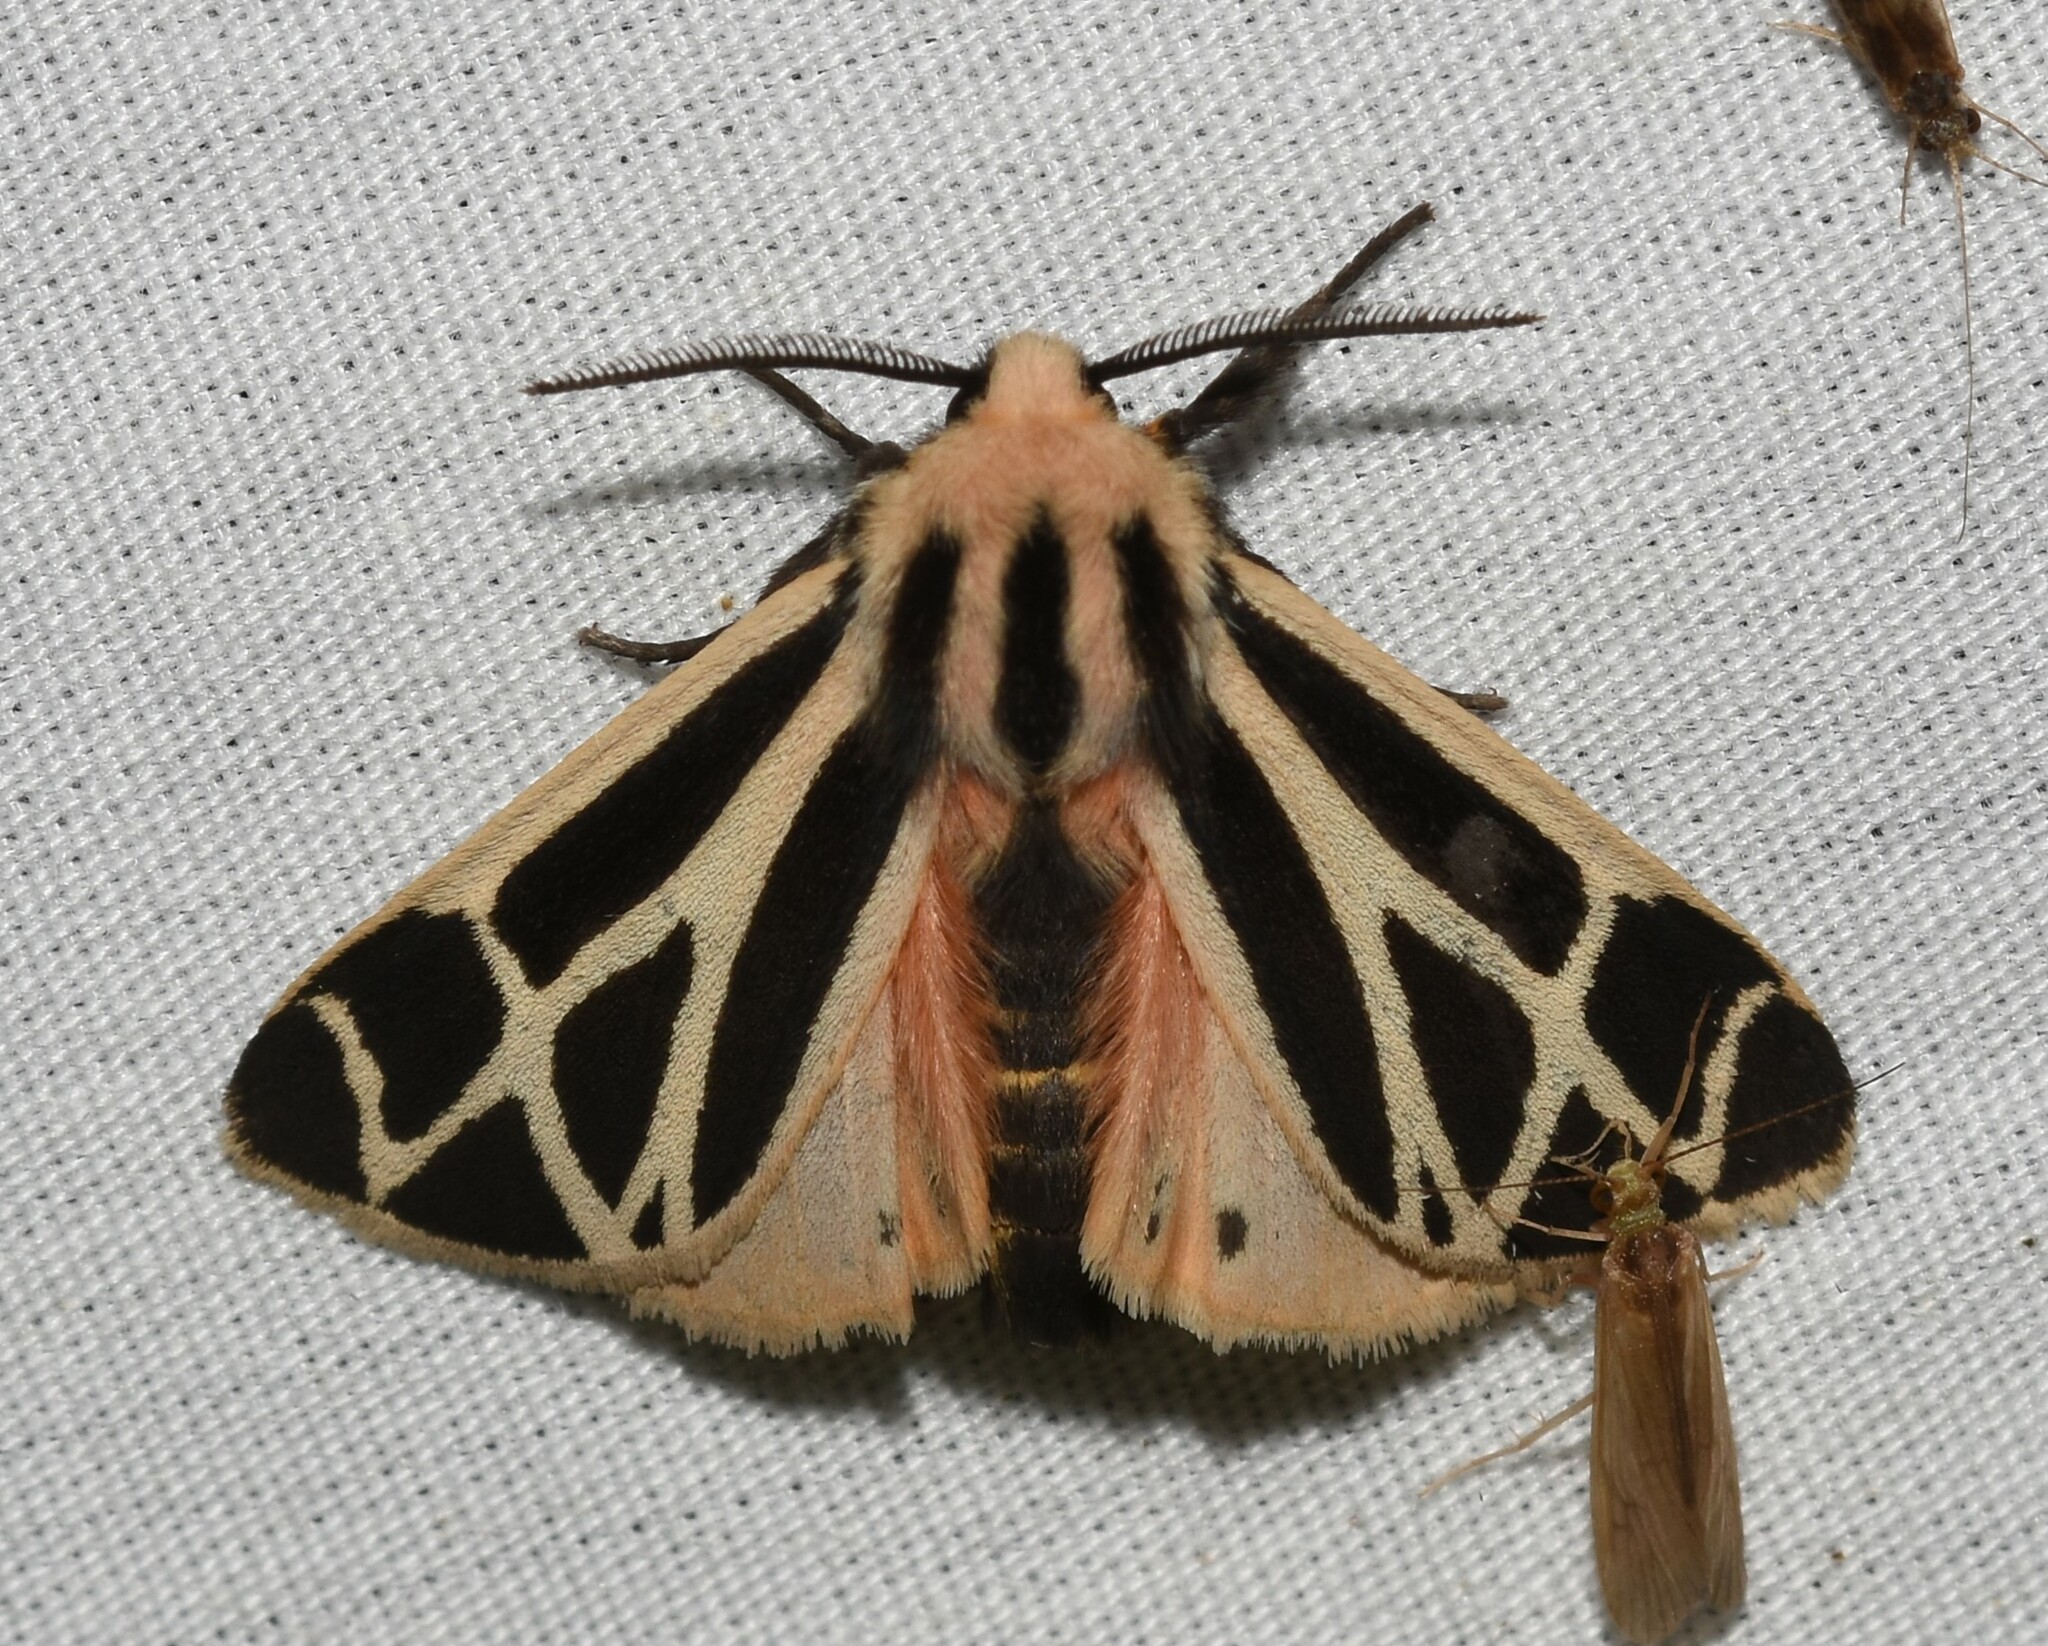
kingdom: Animalia
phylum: Arthropoda
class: Insecta
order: Lepidoptera
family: Erebidae
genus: Apantesis
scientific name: Apantesis phalerata
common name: Harnessed tiger moth
